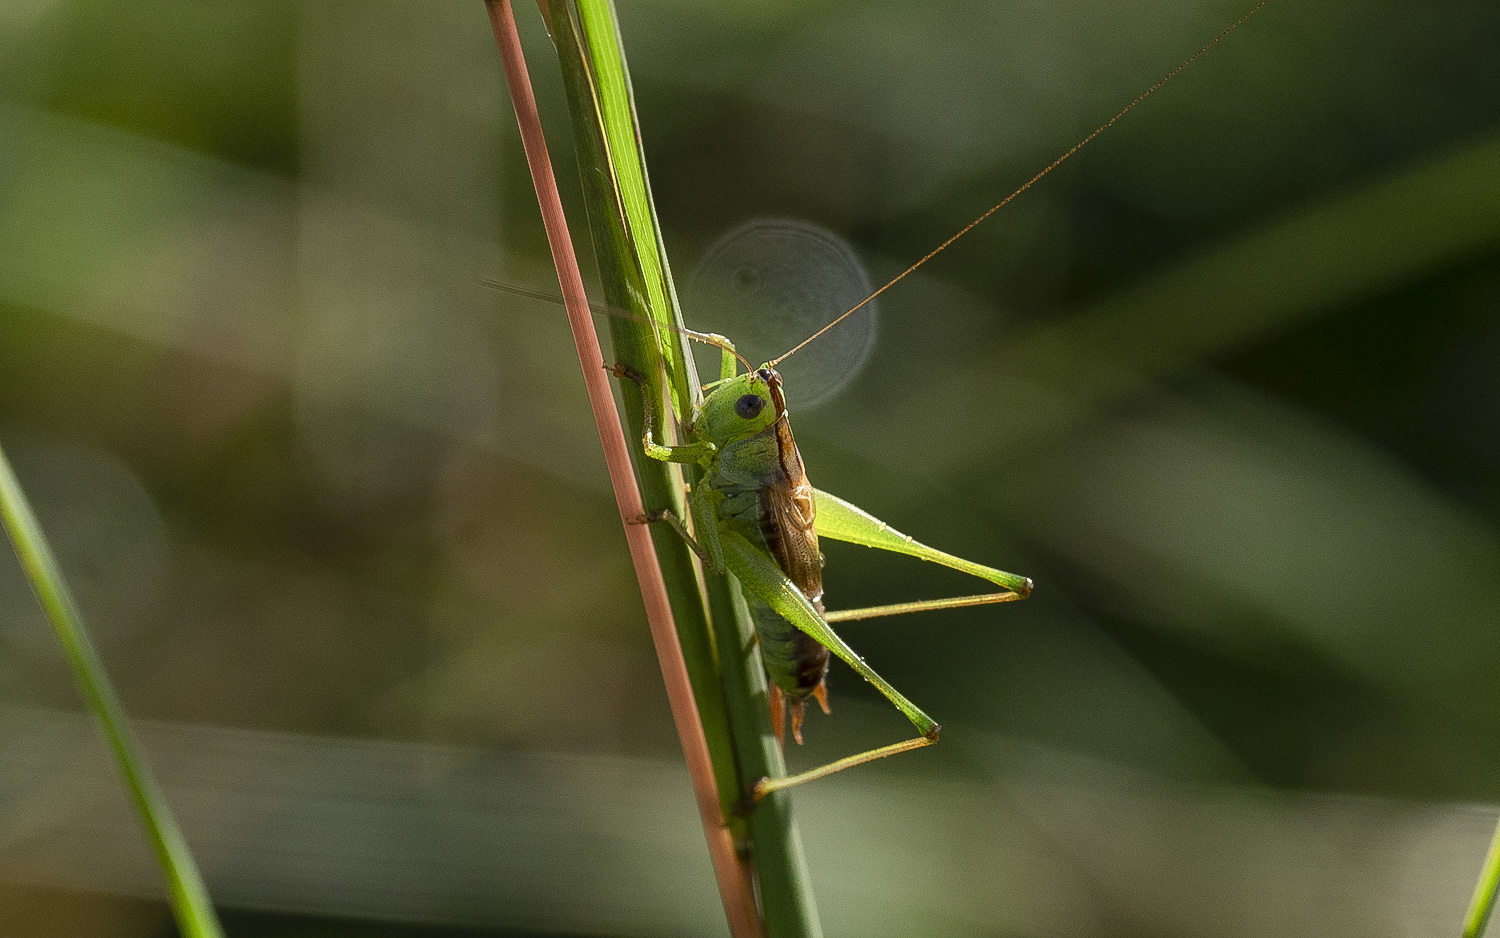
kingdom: Animalia
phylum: Arthropoda
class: Insecta
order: Orthoptera
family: Tettigoniidae
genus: Conocephalus
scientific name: Conocephalus strictus
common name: Straight-lanced katydid
